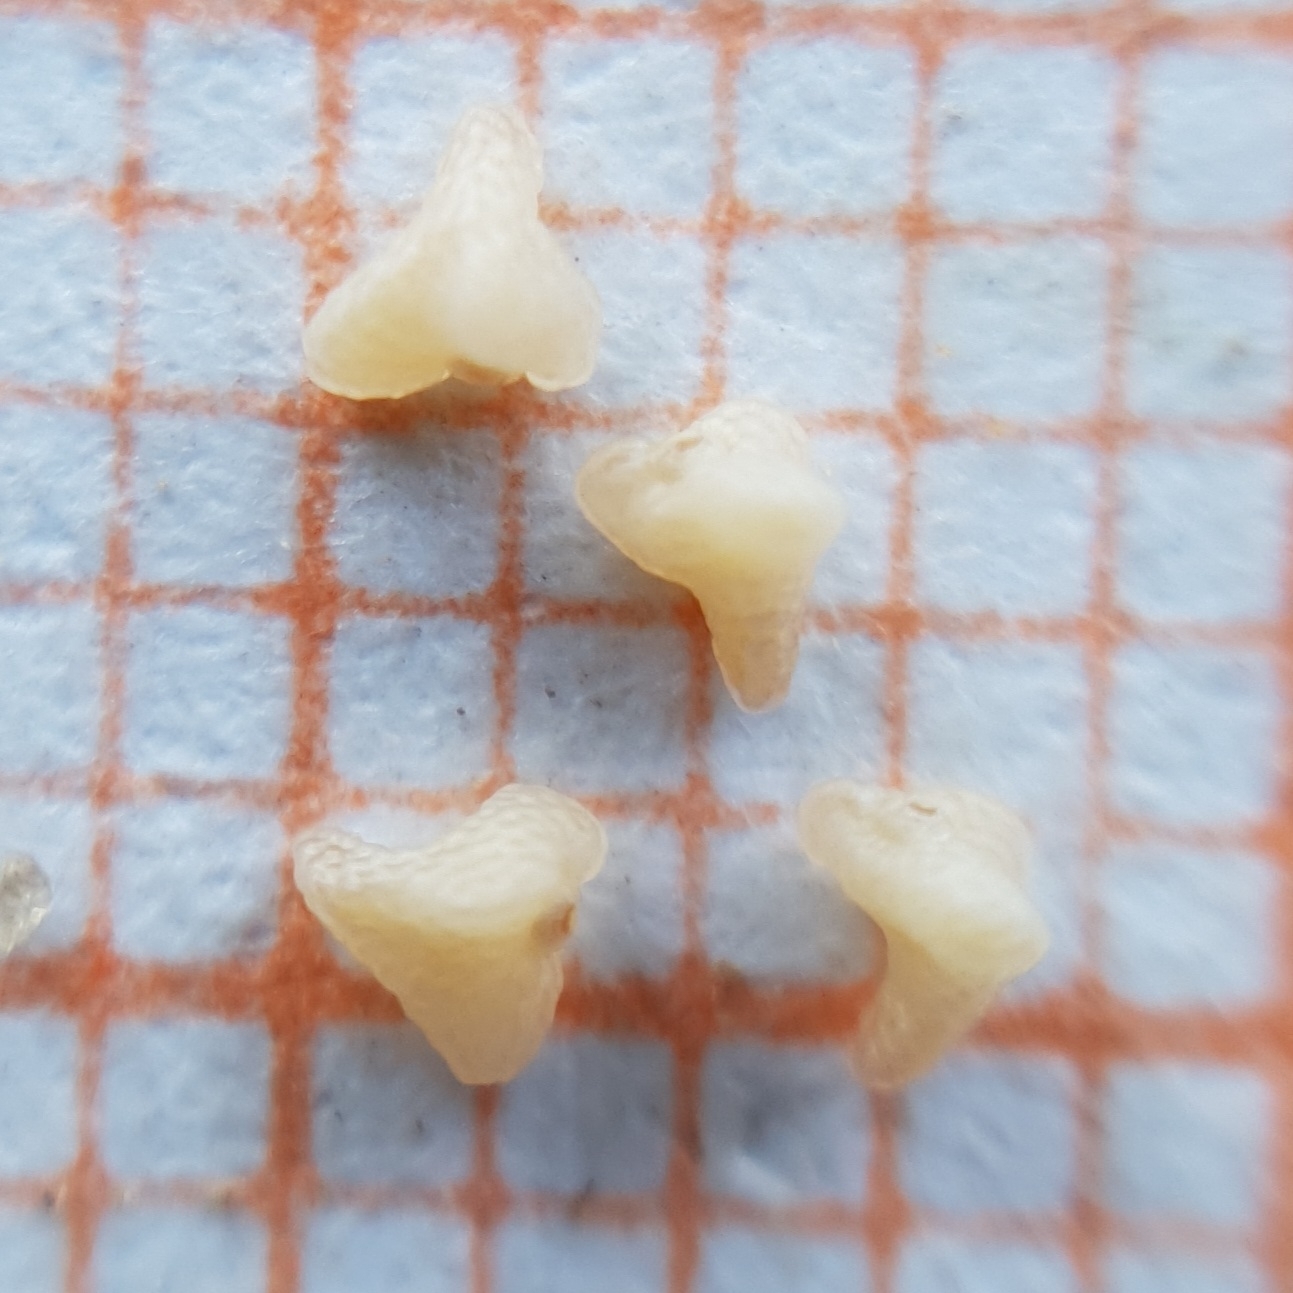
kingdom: Plantae
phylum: Tracheophyta
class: Magnoliopsida
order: Malvales
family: Cistaceae
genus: Helianthemum
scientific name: Helianthemum sanguineum
